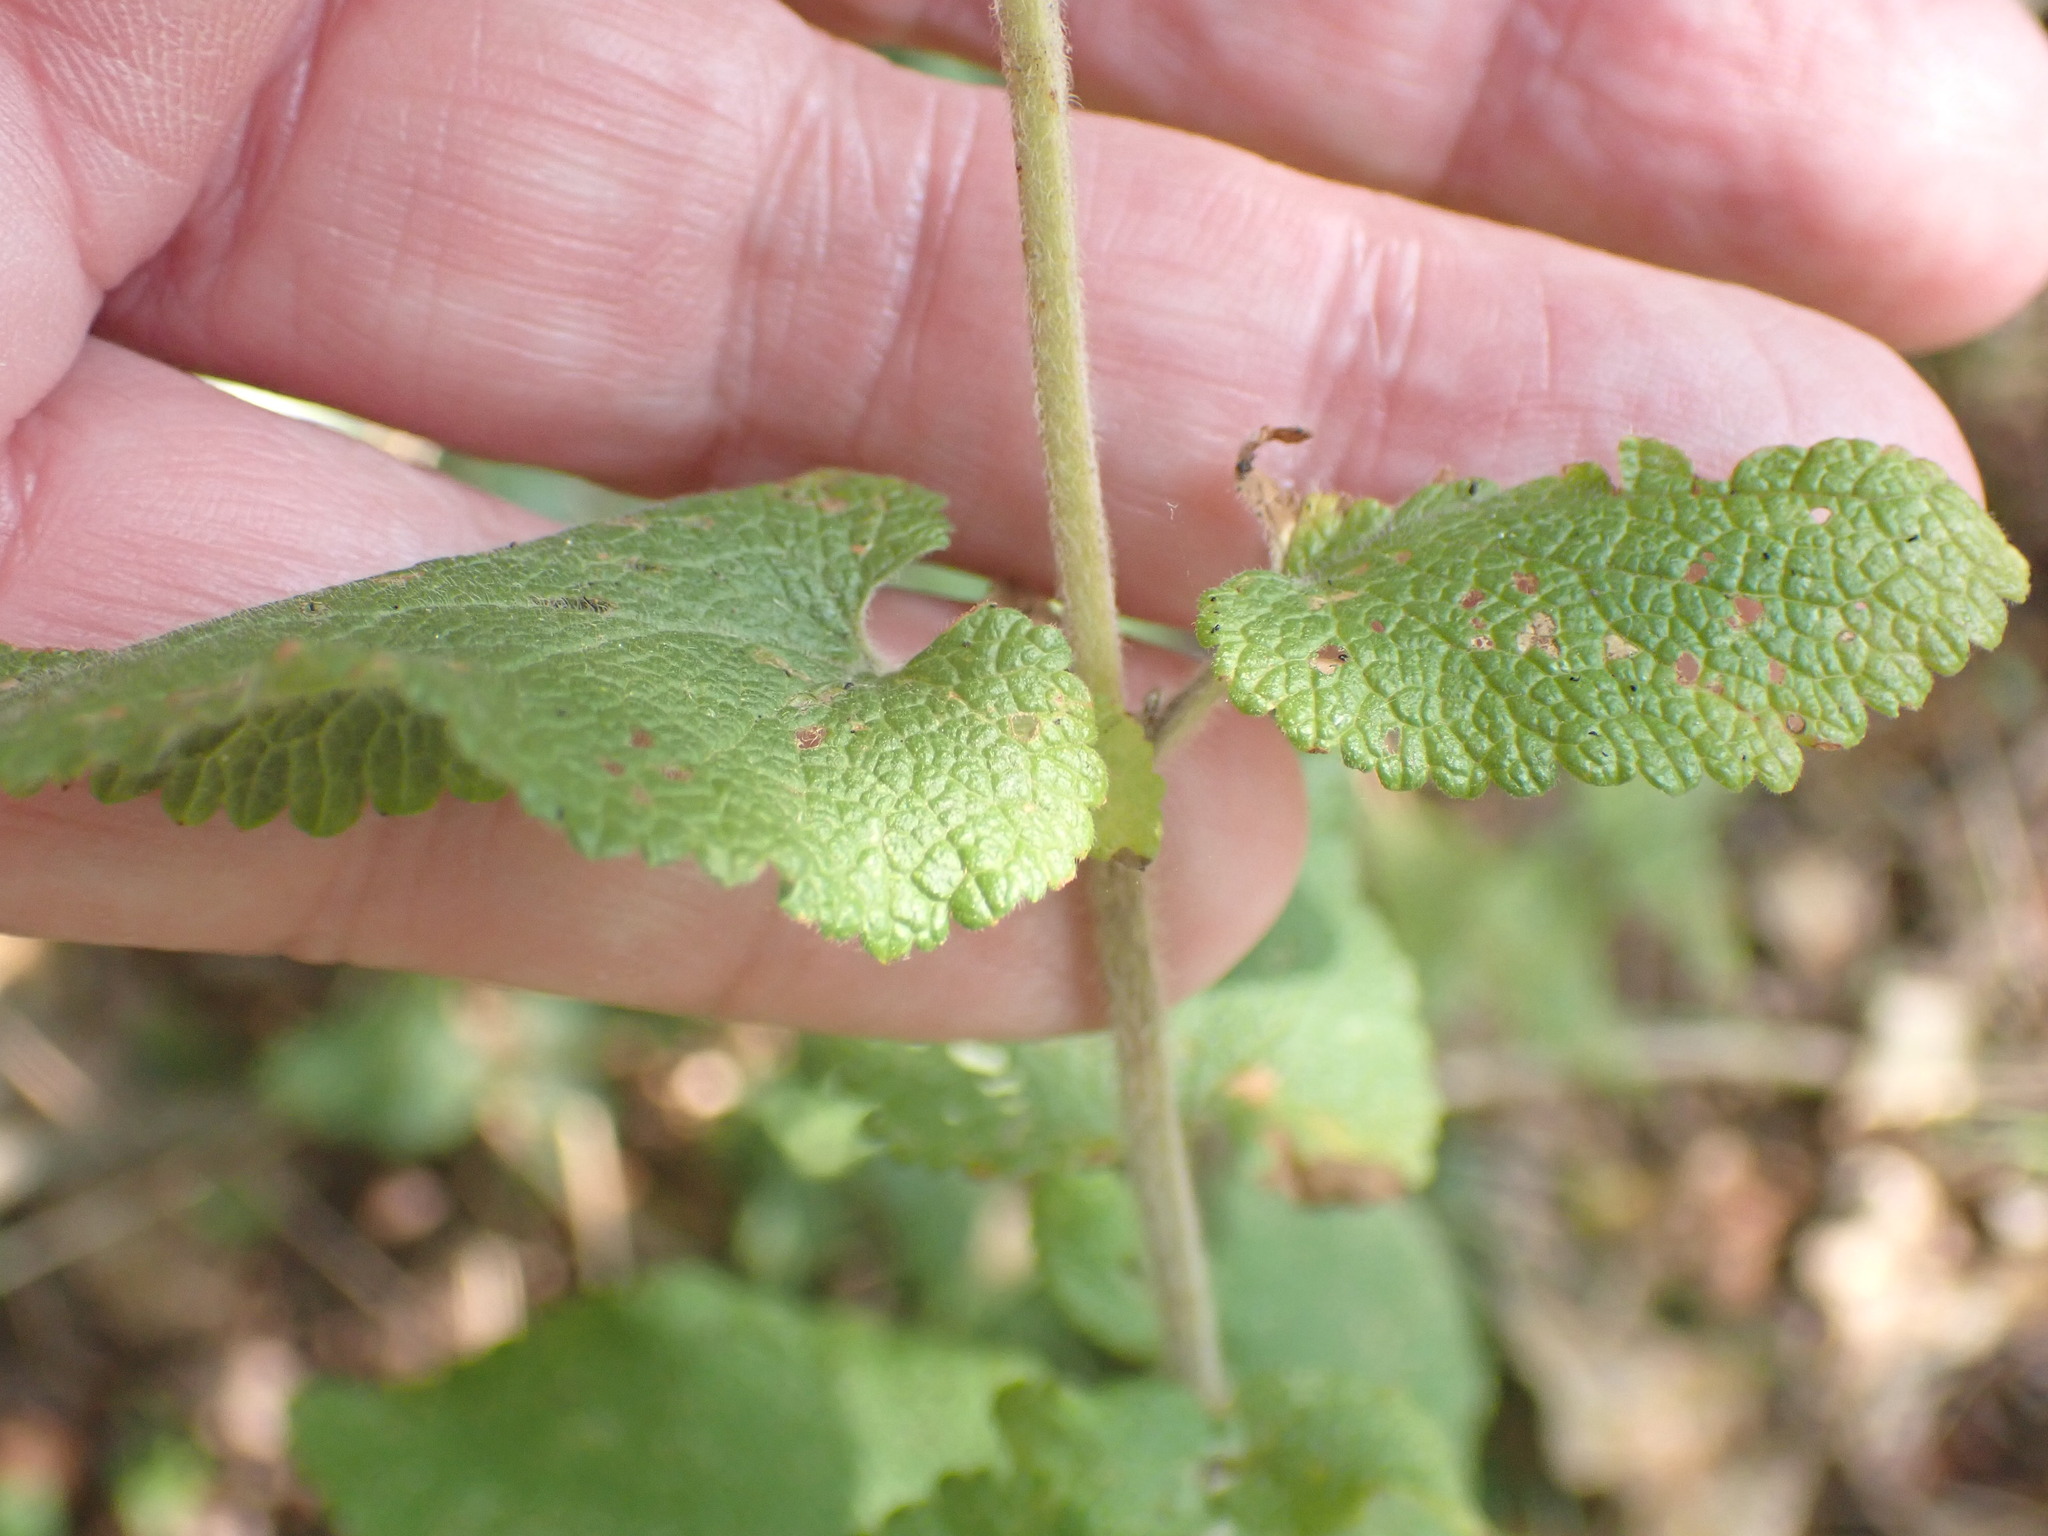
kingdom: Plantae
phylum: Tracheophyta
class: Magnoliopsida
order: Lamiales
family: Lamiaceae
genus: Teucrium
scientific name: Teucrium scorodonia
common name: Woodland germander
